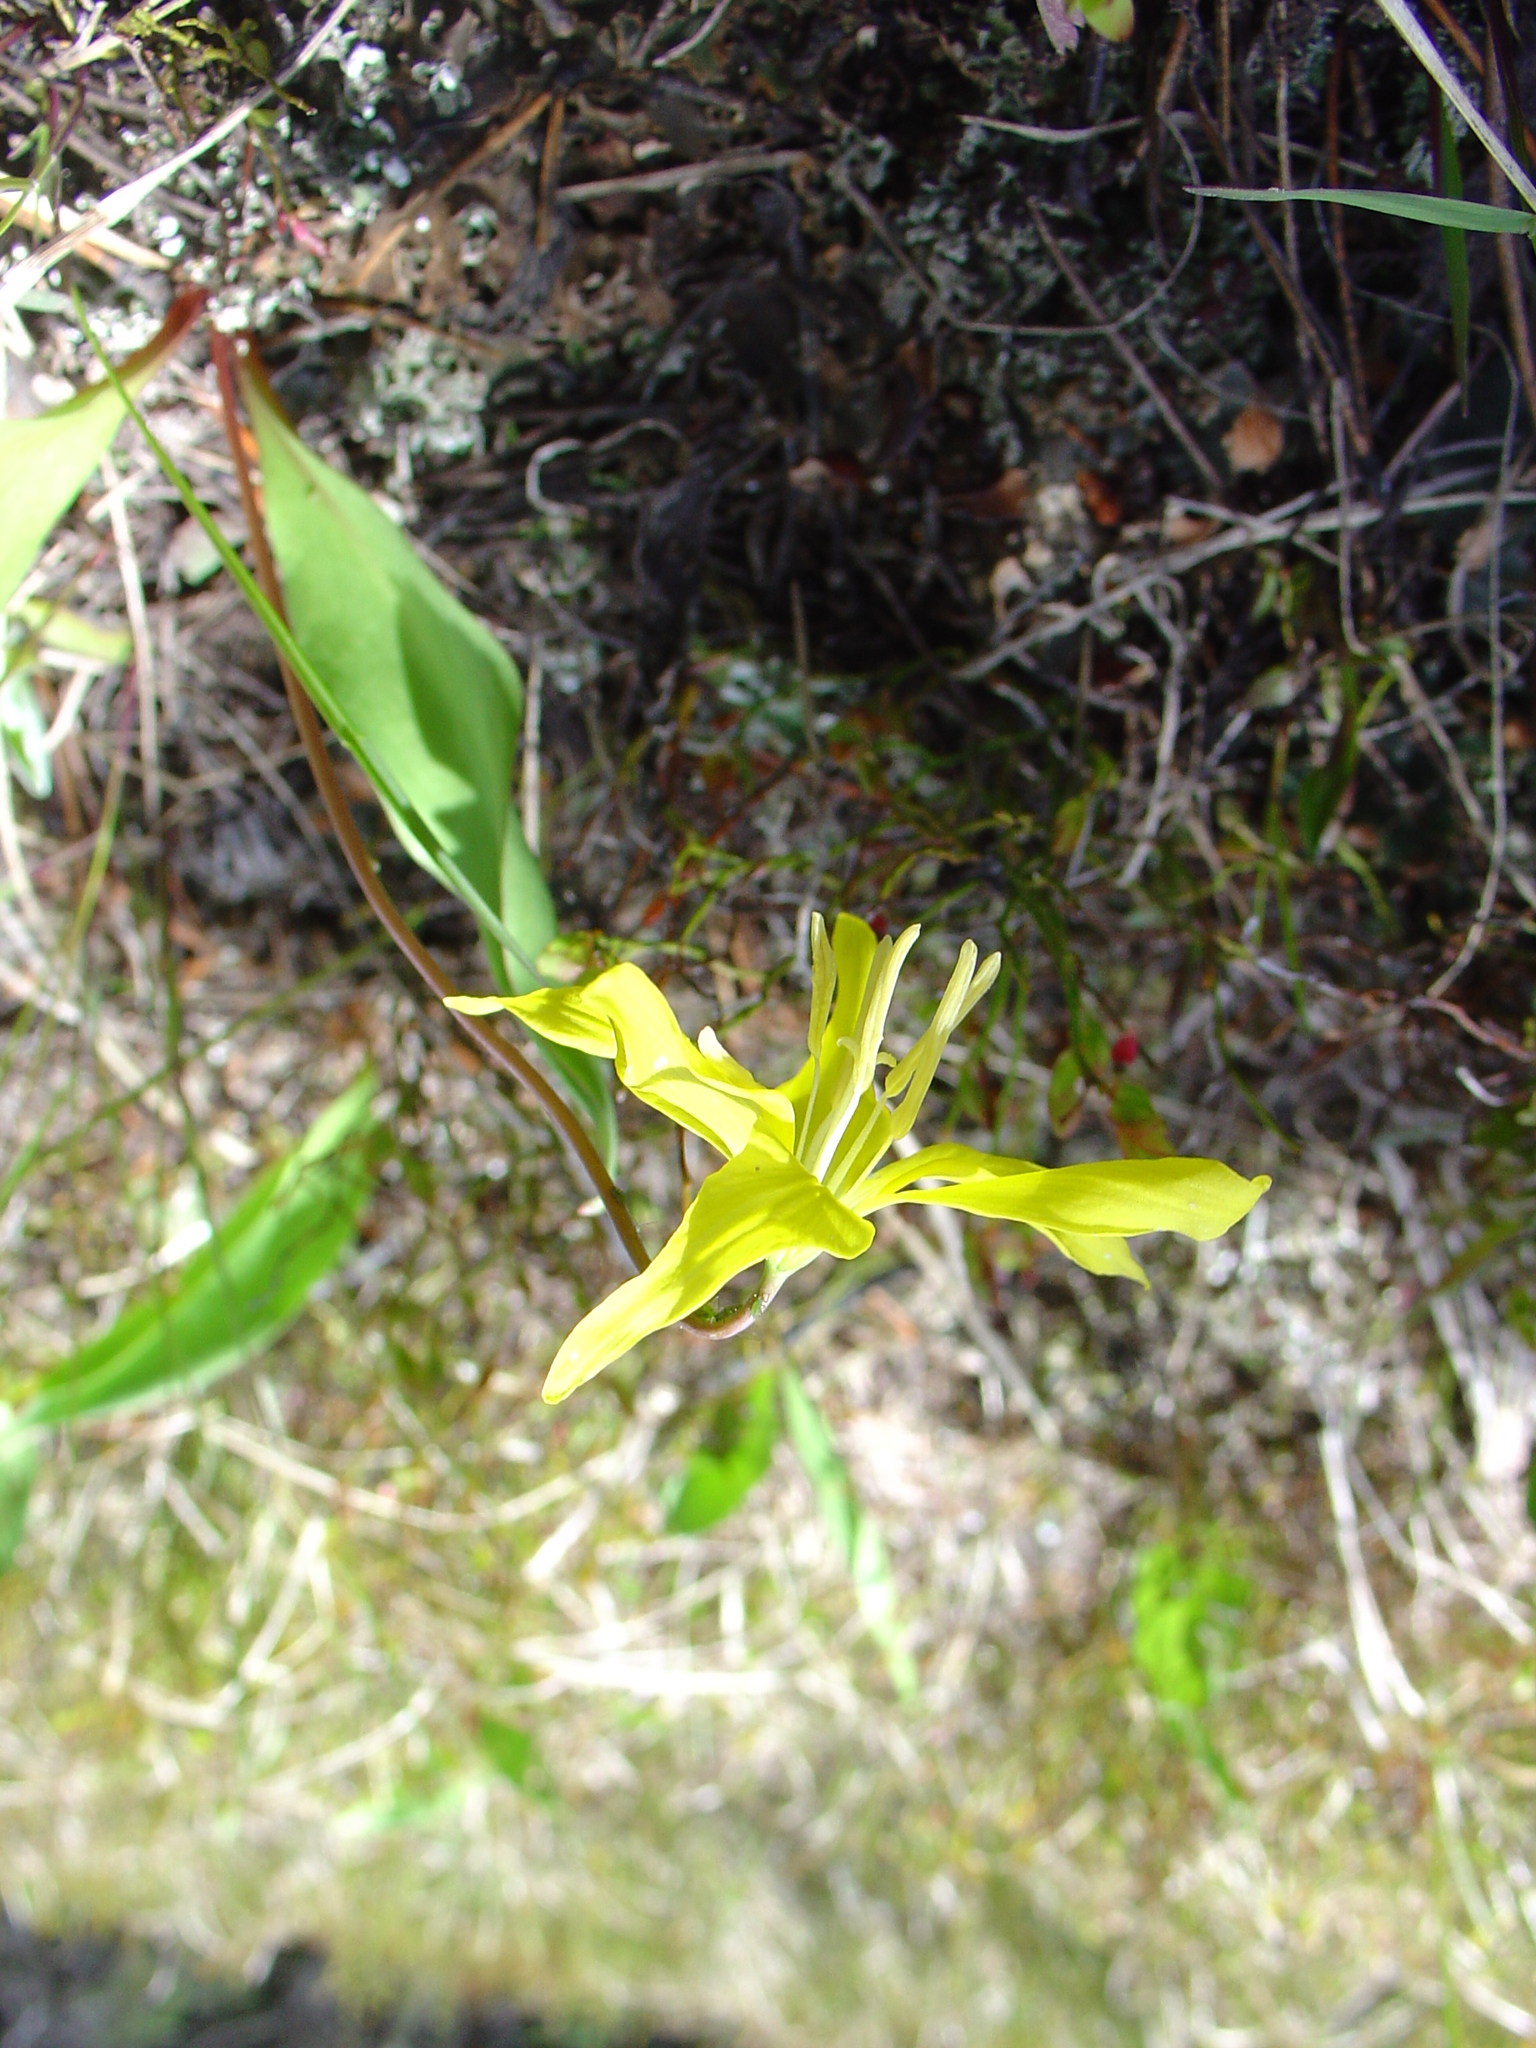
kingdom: Plantae
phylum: Tracheophyta
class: Liliopsida
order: Liliales
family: Liliaceae
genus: Erythronium
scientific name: Erythronium grandiflorum
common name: Avalanche-lily
